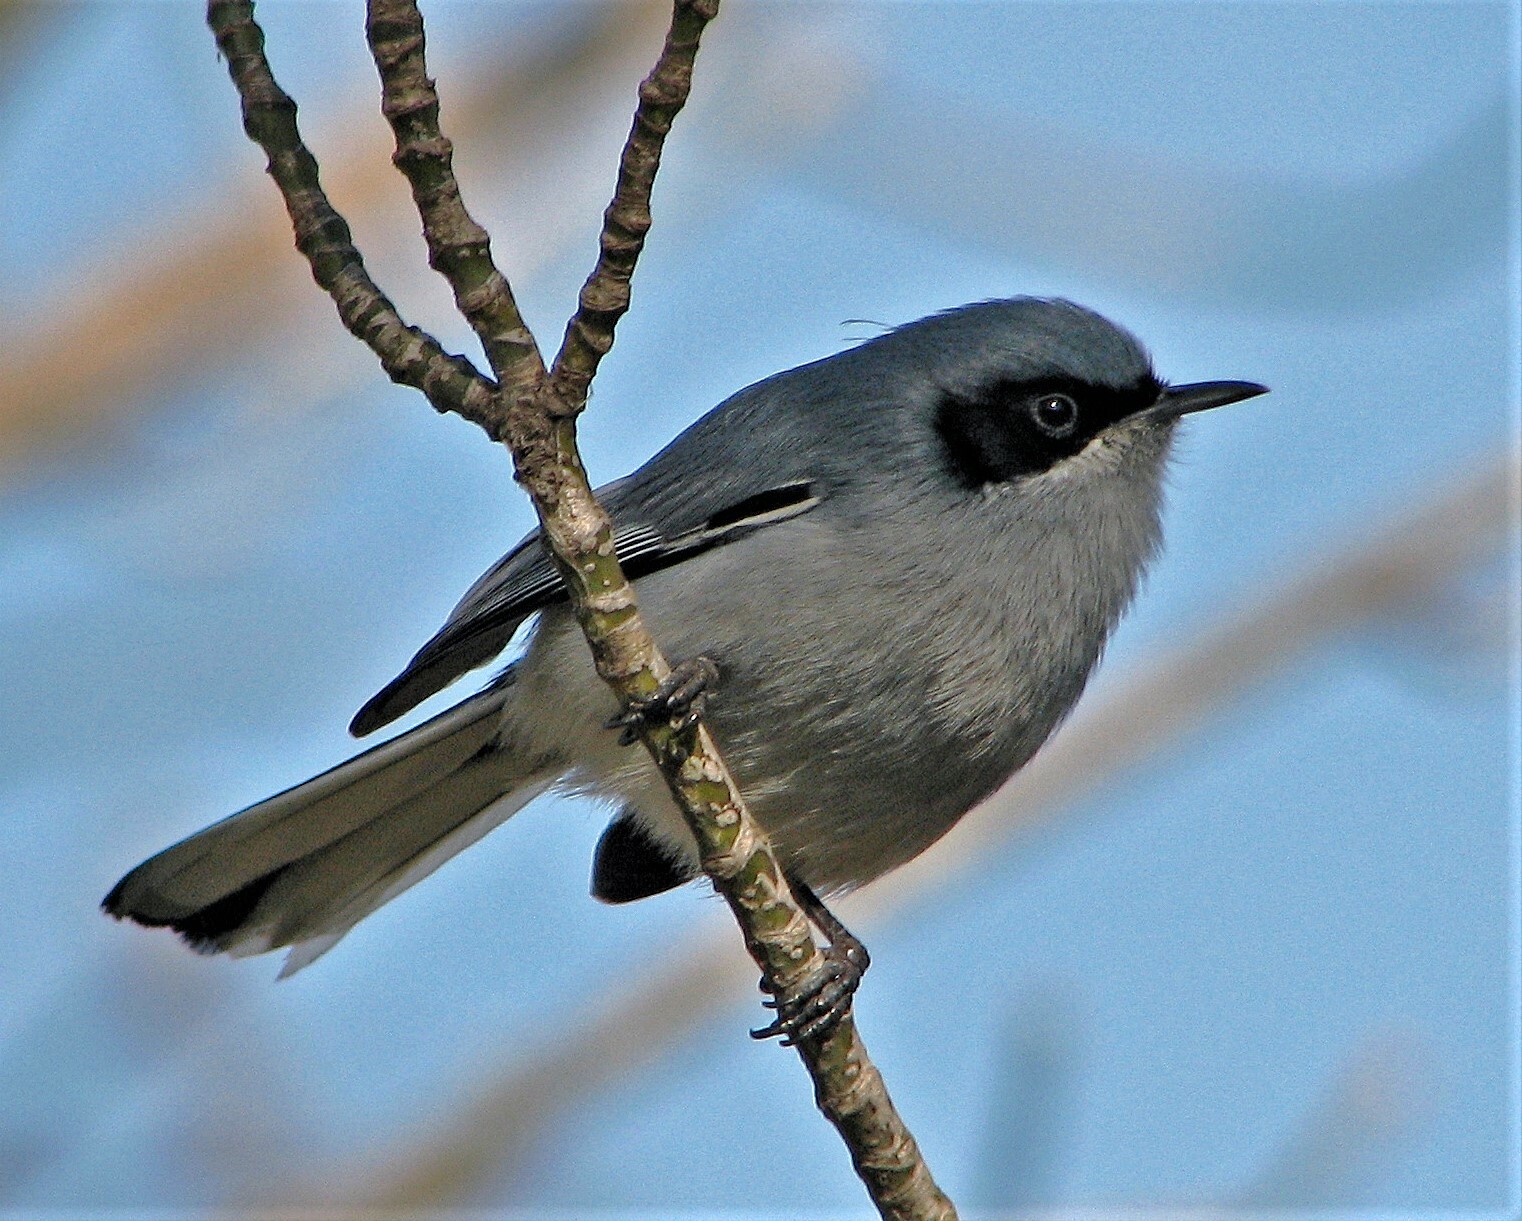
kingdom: Animalia
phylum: Chordata
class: Aves
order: Passeriformes
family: Polioptilidae
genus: Polioptila
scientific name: Polioptila dumicola
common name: Masked gnatcatcher
